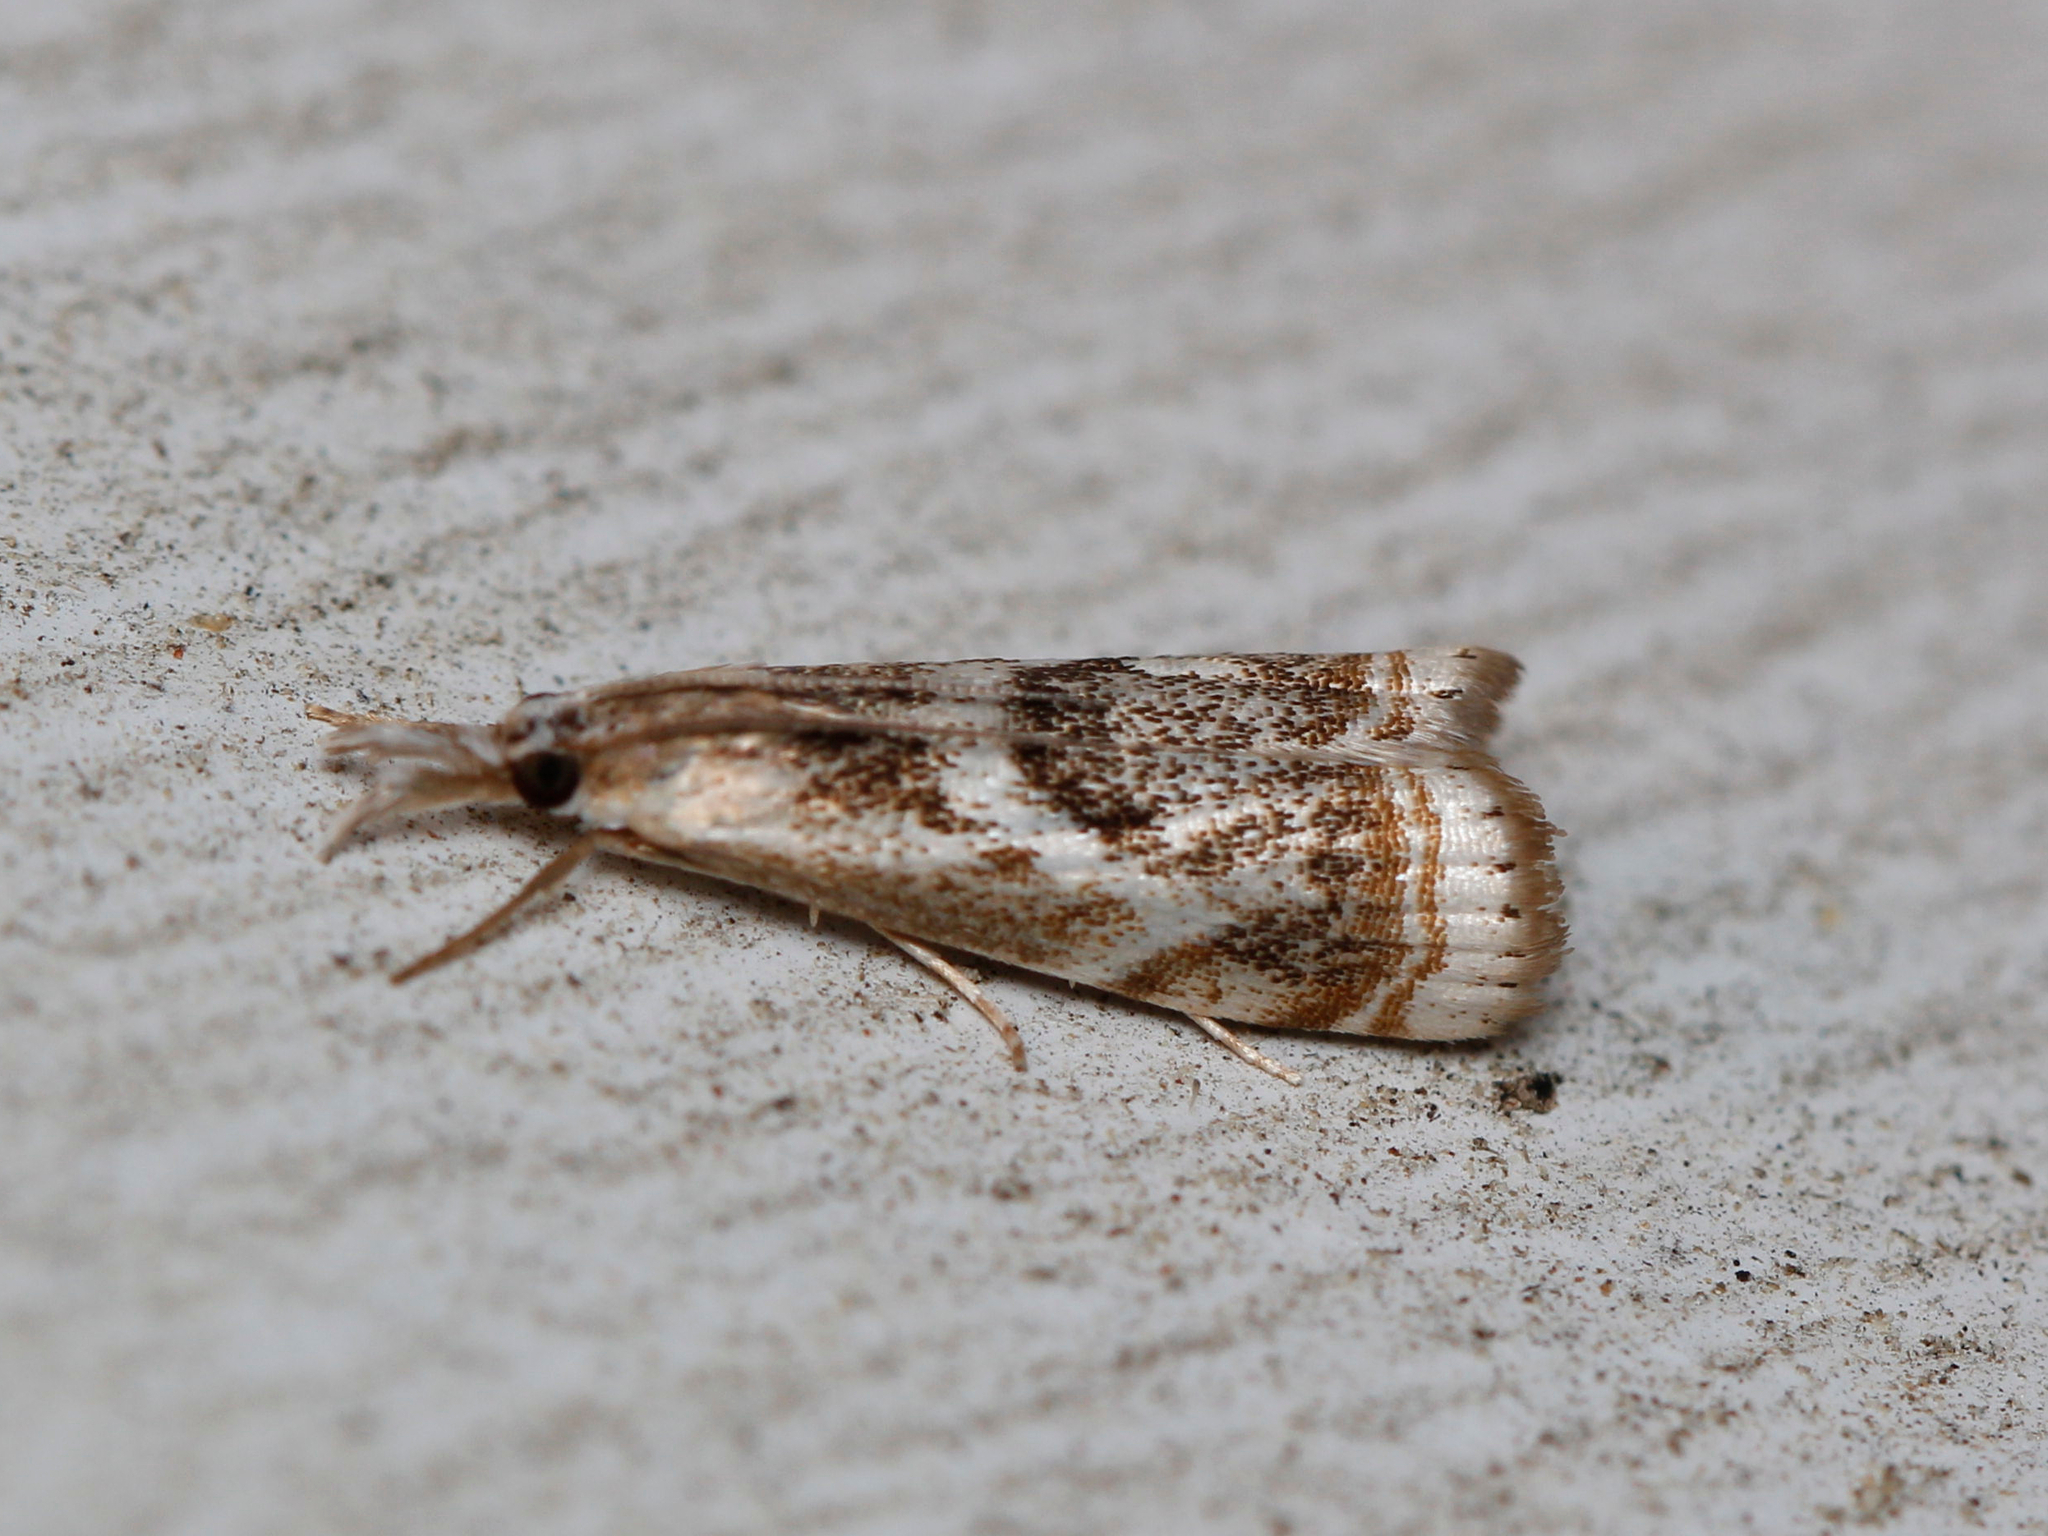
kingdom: Animalia
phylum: Arthropoda
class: Insecta
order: Lepidoptera
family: Crambidae
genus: Microcrambus
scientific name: Microcrambus elegans
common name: Elegant grass-veneer
